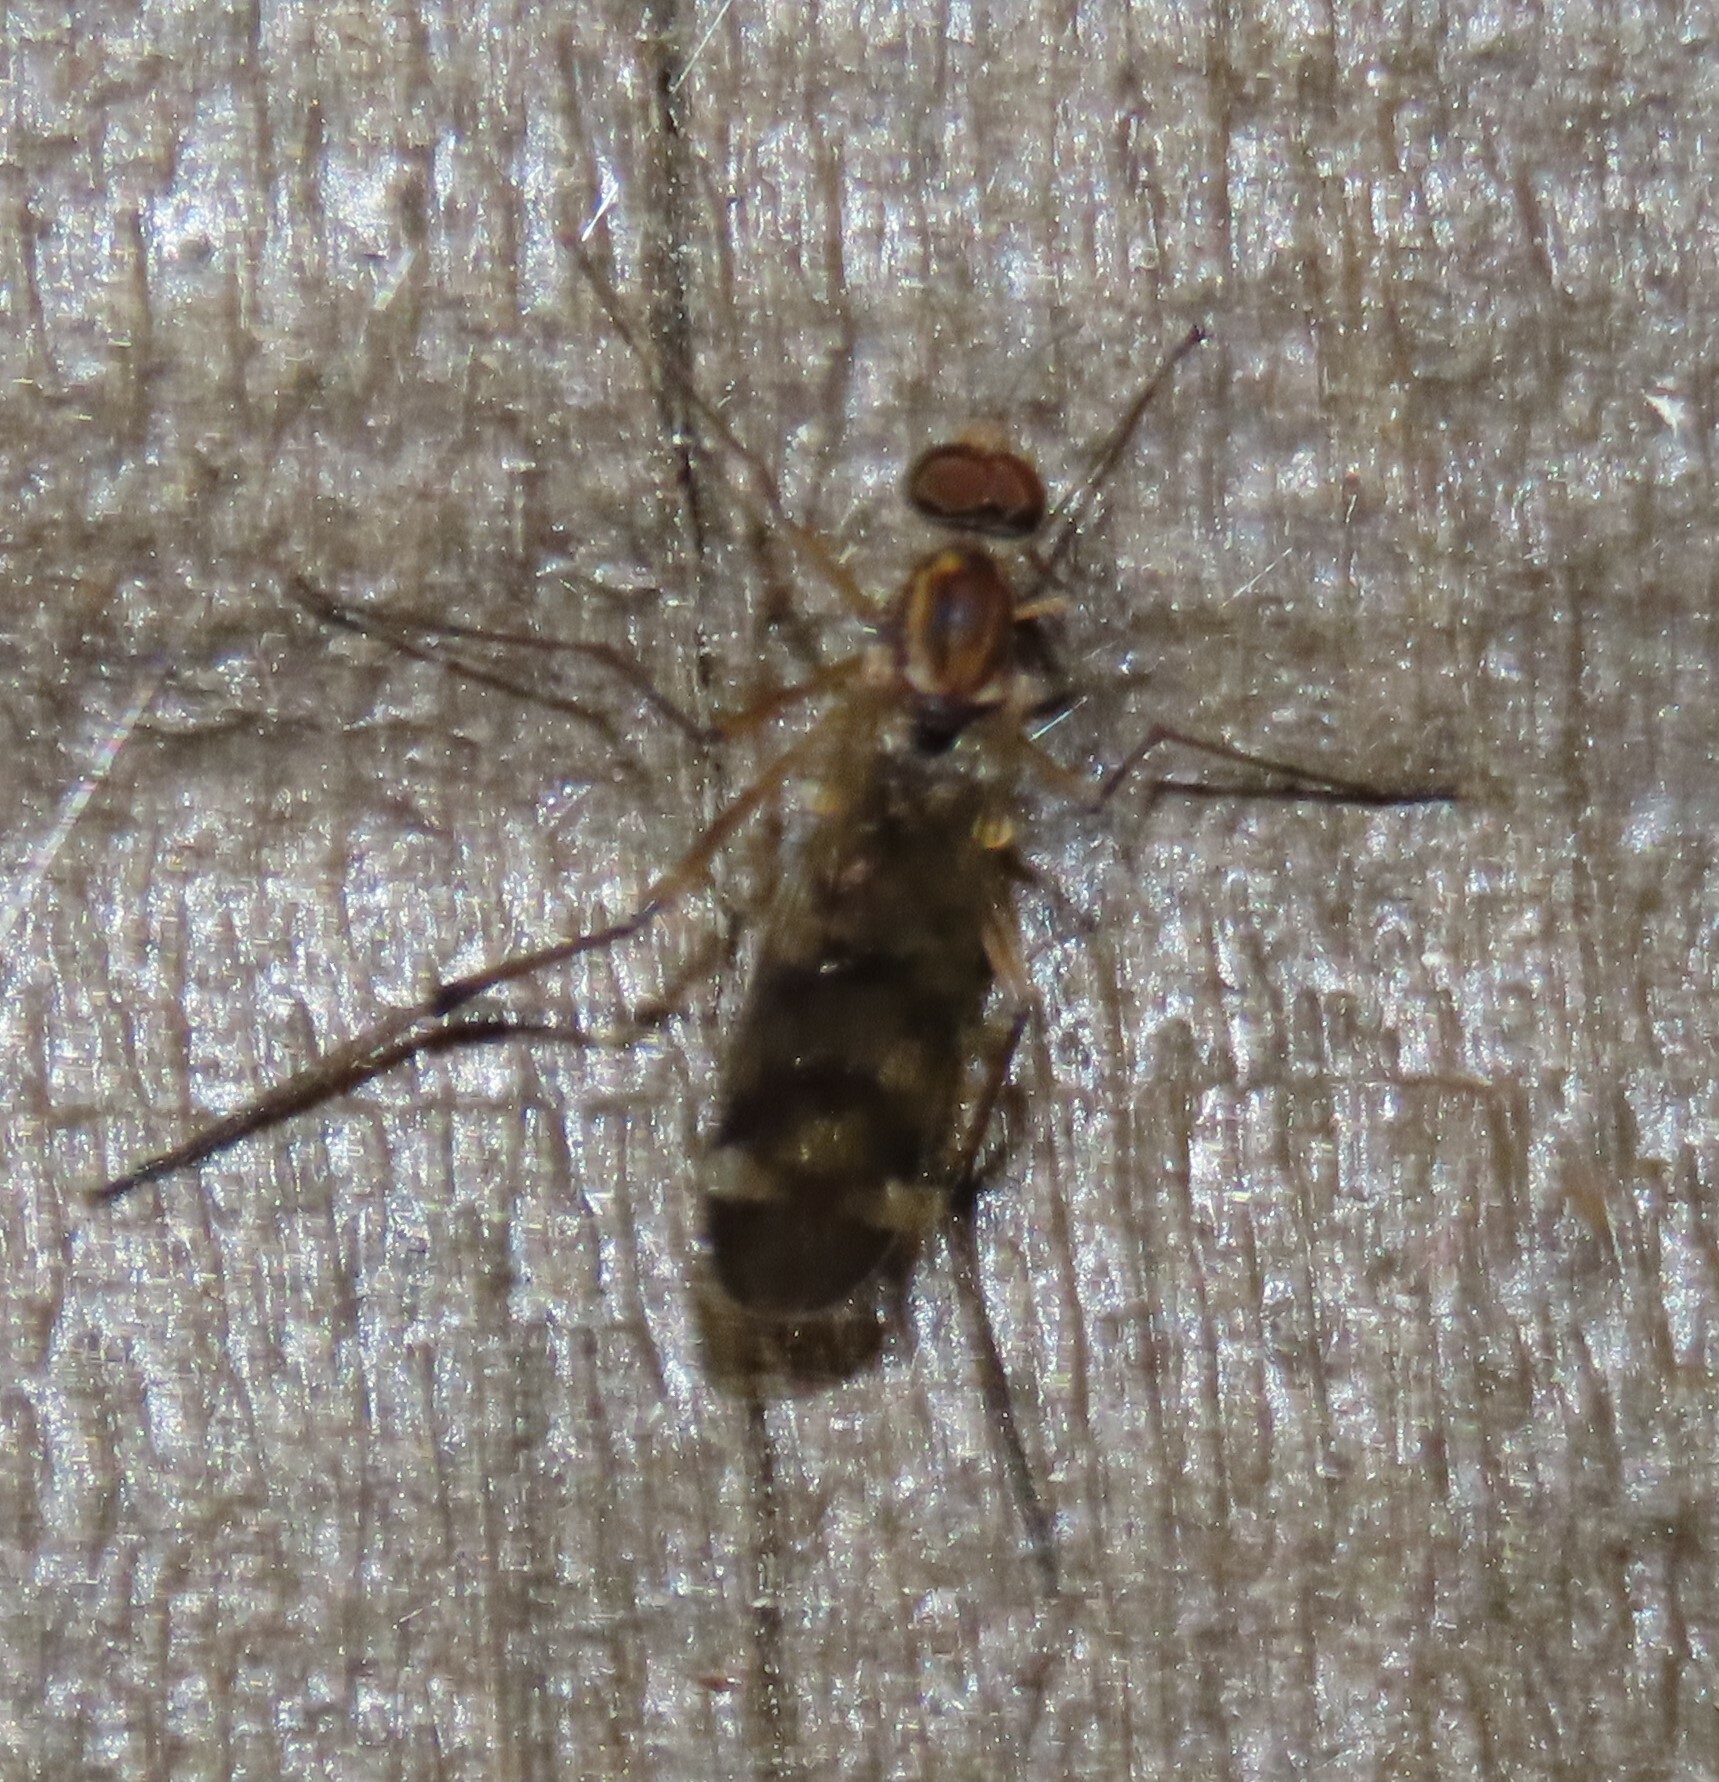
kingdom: Animalia
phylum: Arthropoda
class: Insecta
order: Diptera
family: Anisopodidae
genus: Sylvicola
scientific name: Sylvicola notatus
